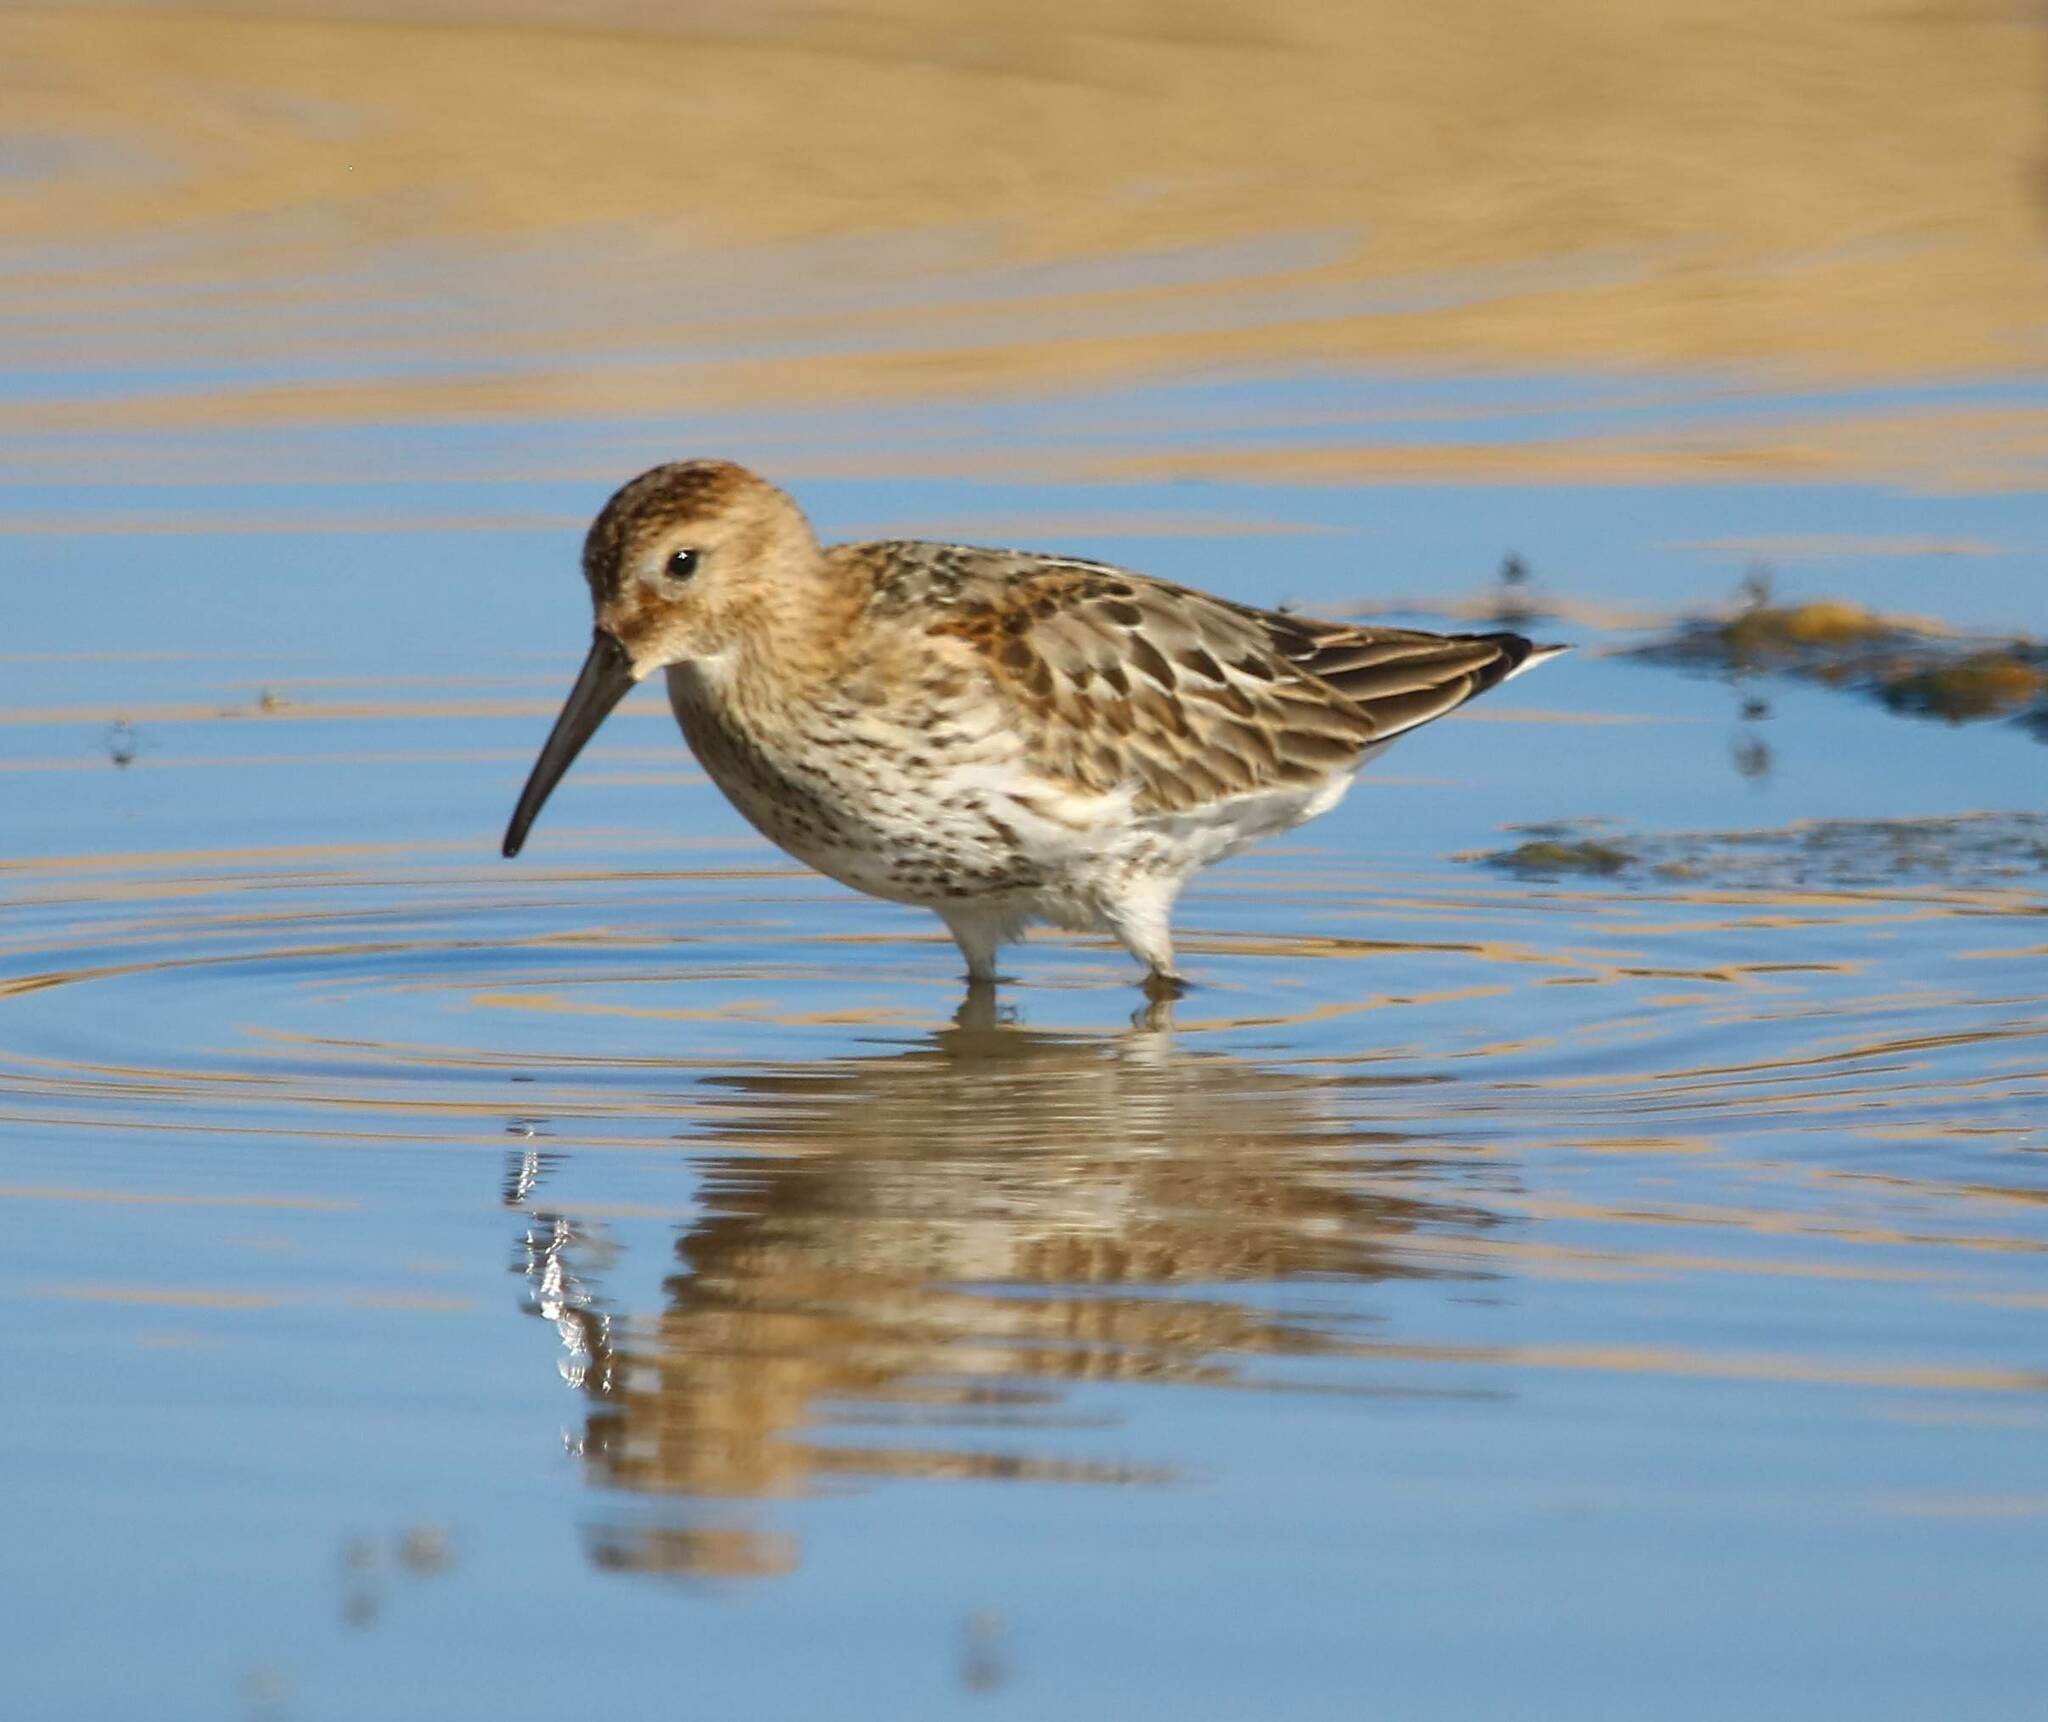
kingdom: Animalia
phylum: Chordata
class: Aves
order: Charadriiformes
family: Scolopacidae
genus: Calidris
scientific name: Calidris alpina
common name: Dunlin
